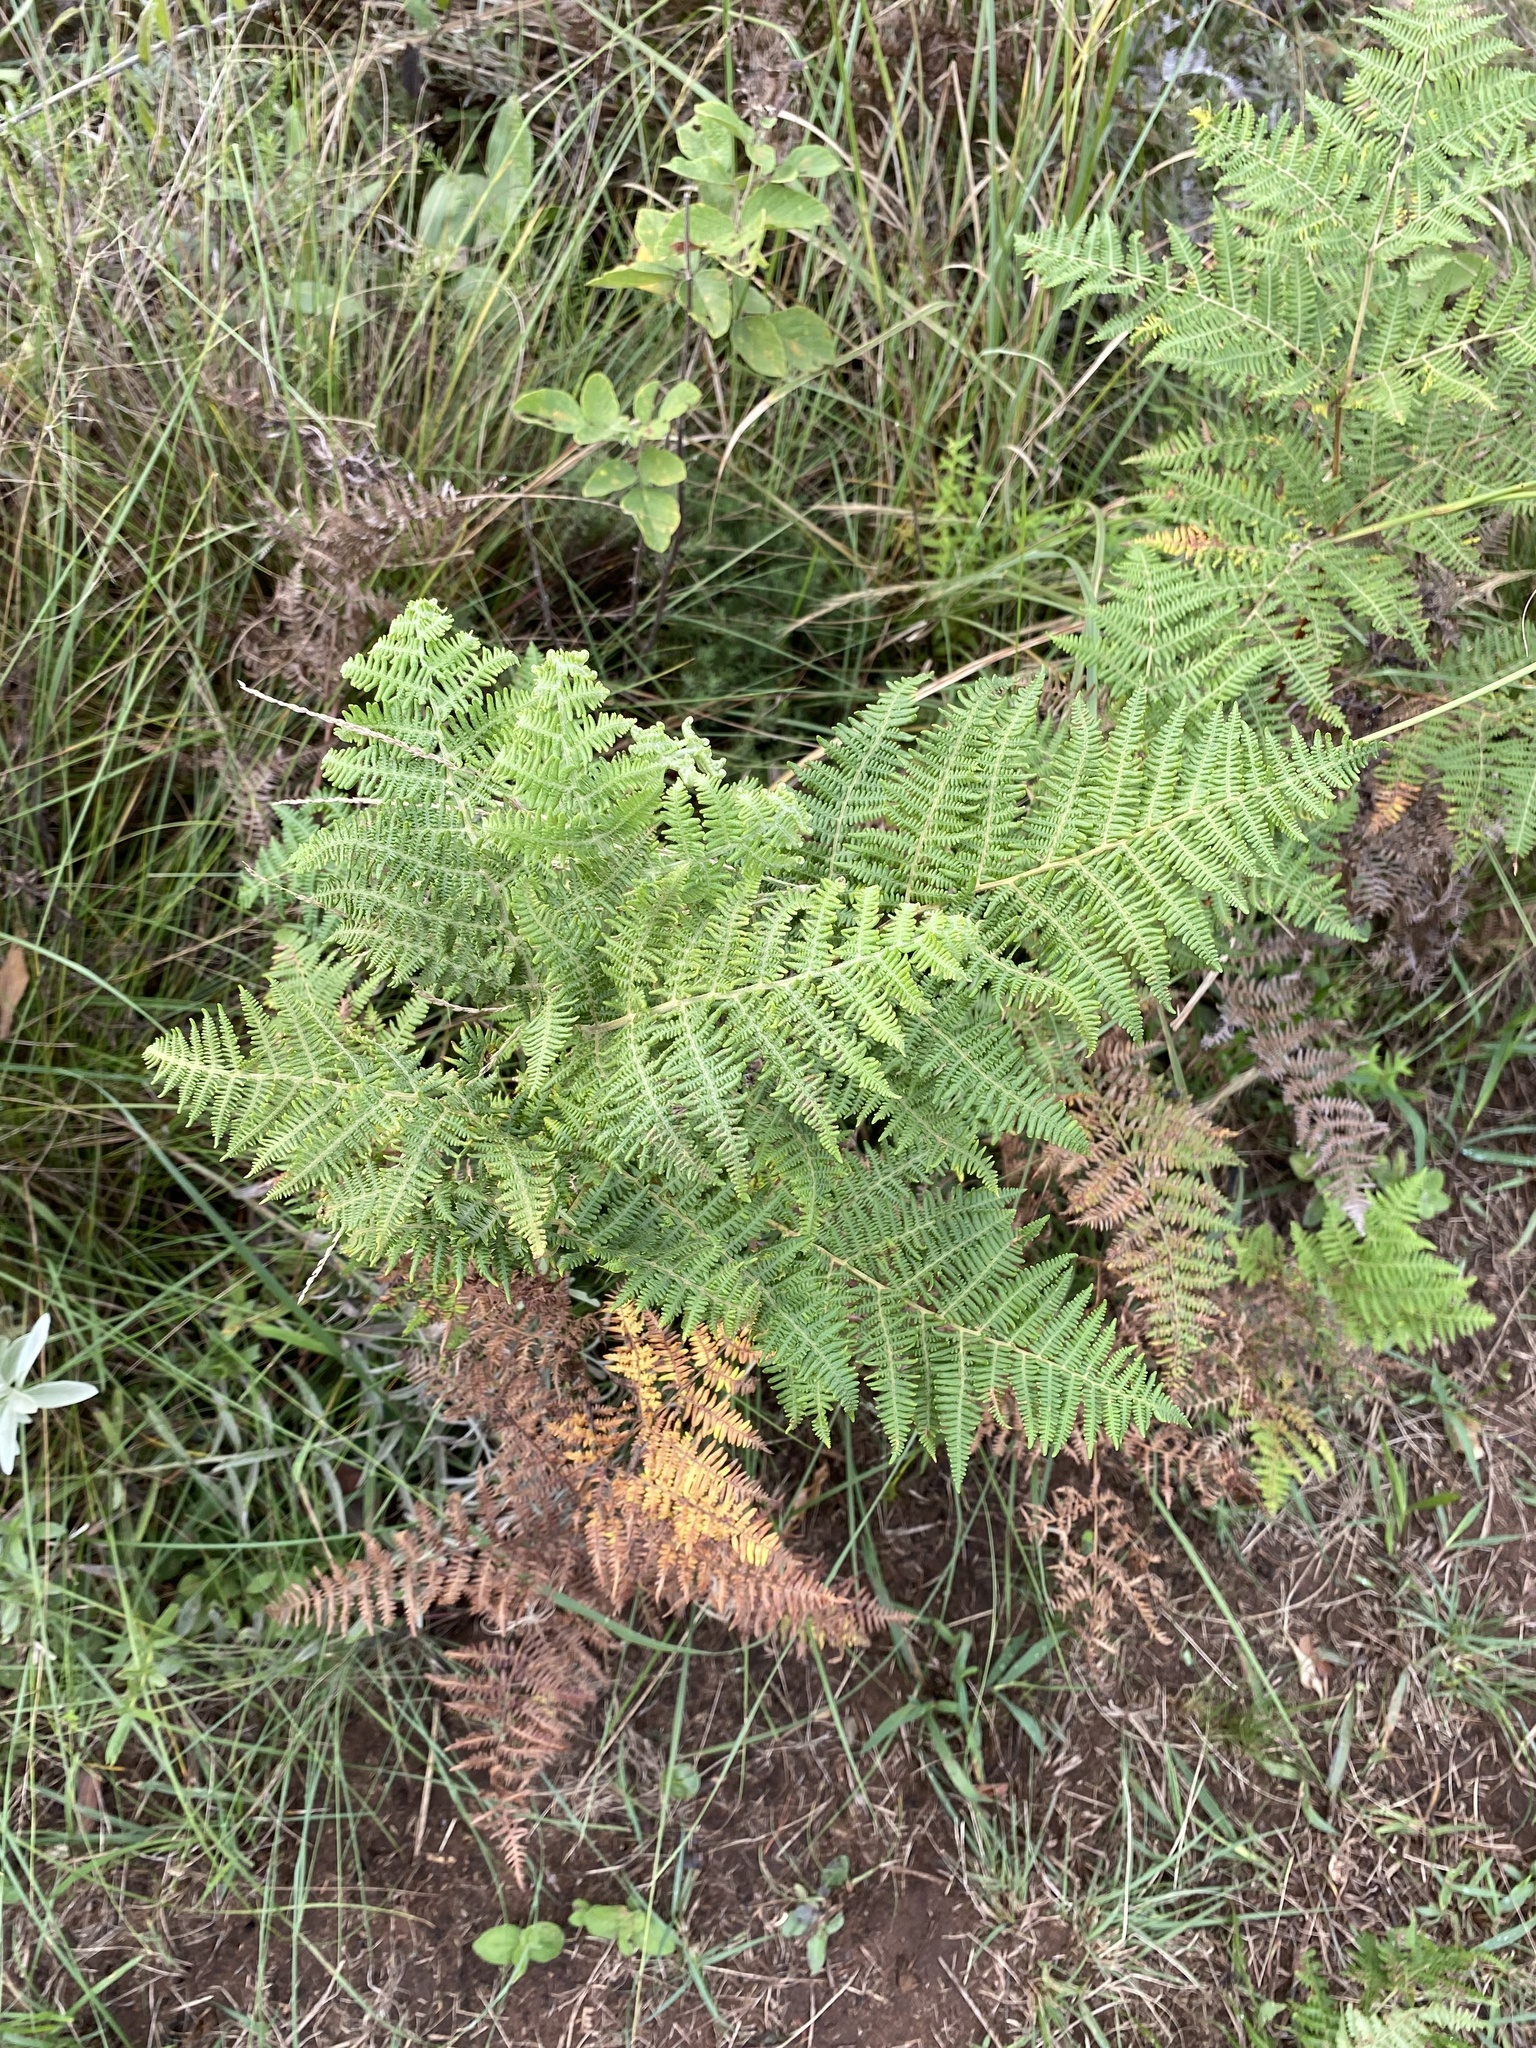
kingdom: Plantae
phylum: Tracheophyta
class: Polypodiopsida
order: Polypodiales
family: Dennstaedtiaceae
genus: Pteridium
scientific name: Pteridium aquilinum
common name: Bracken
